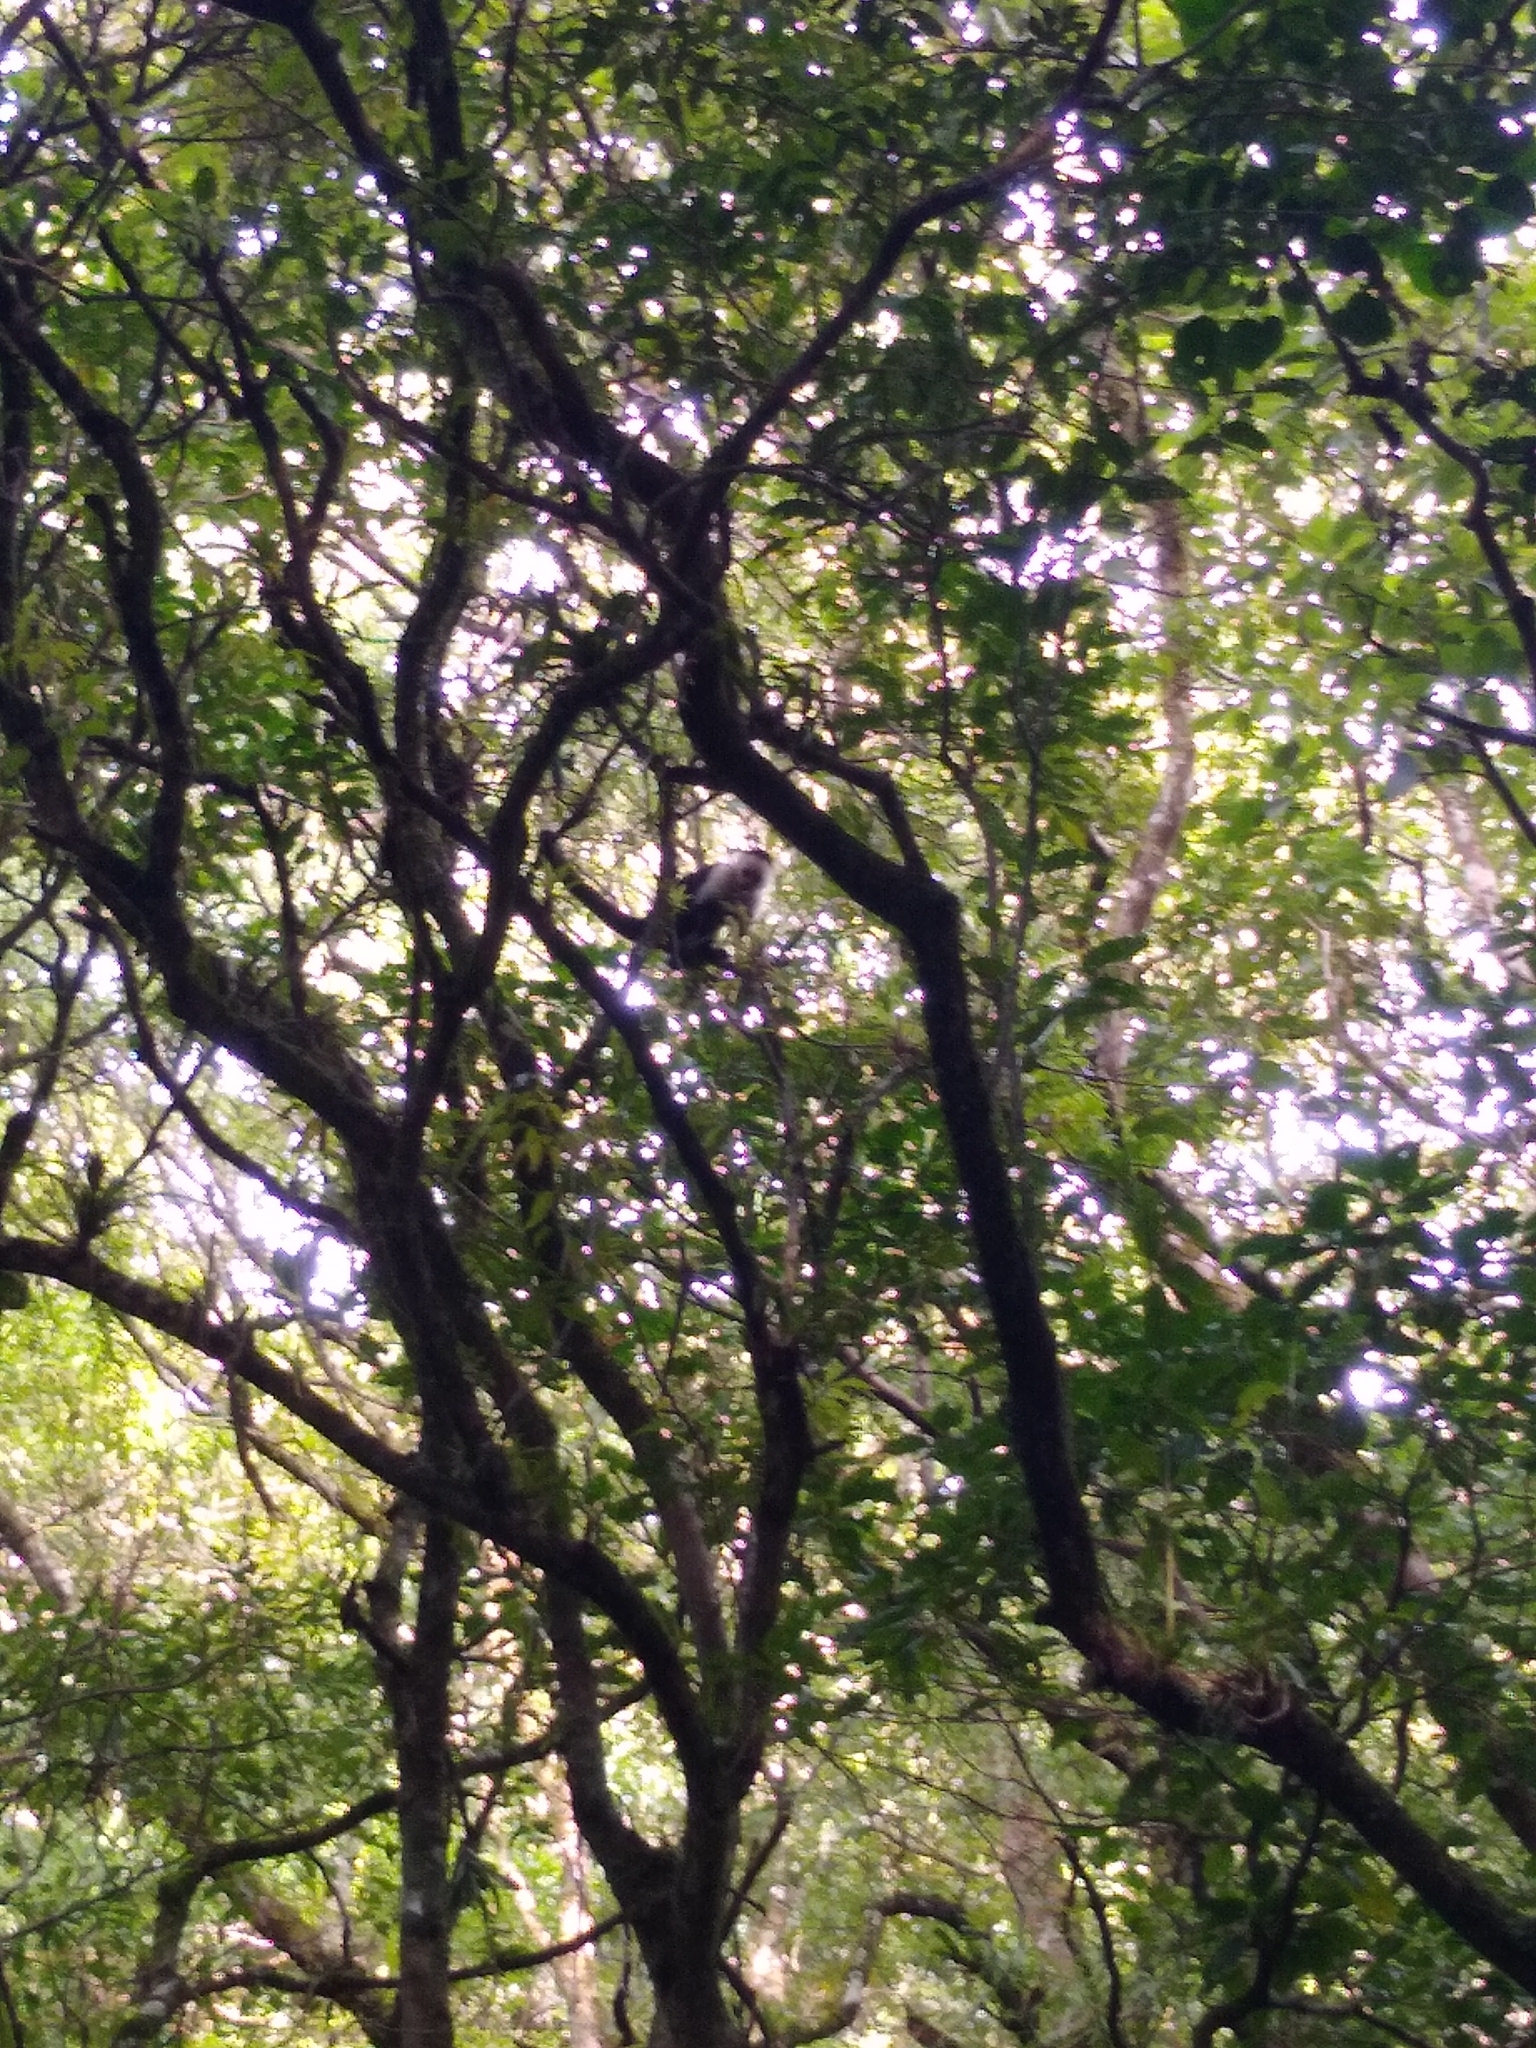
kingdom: Animalia
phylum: Chordata
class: Mammalia
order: Primates
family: Cebidae
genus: Cebus
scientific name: Cebus imitator
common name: Panamanian white-faced capuchin
